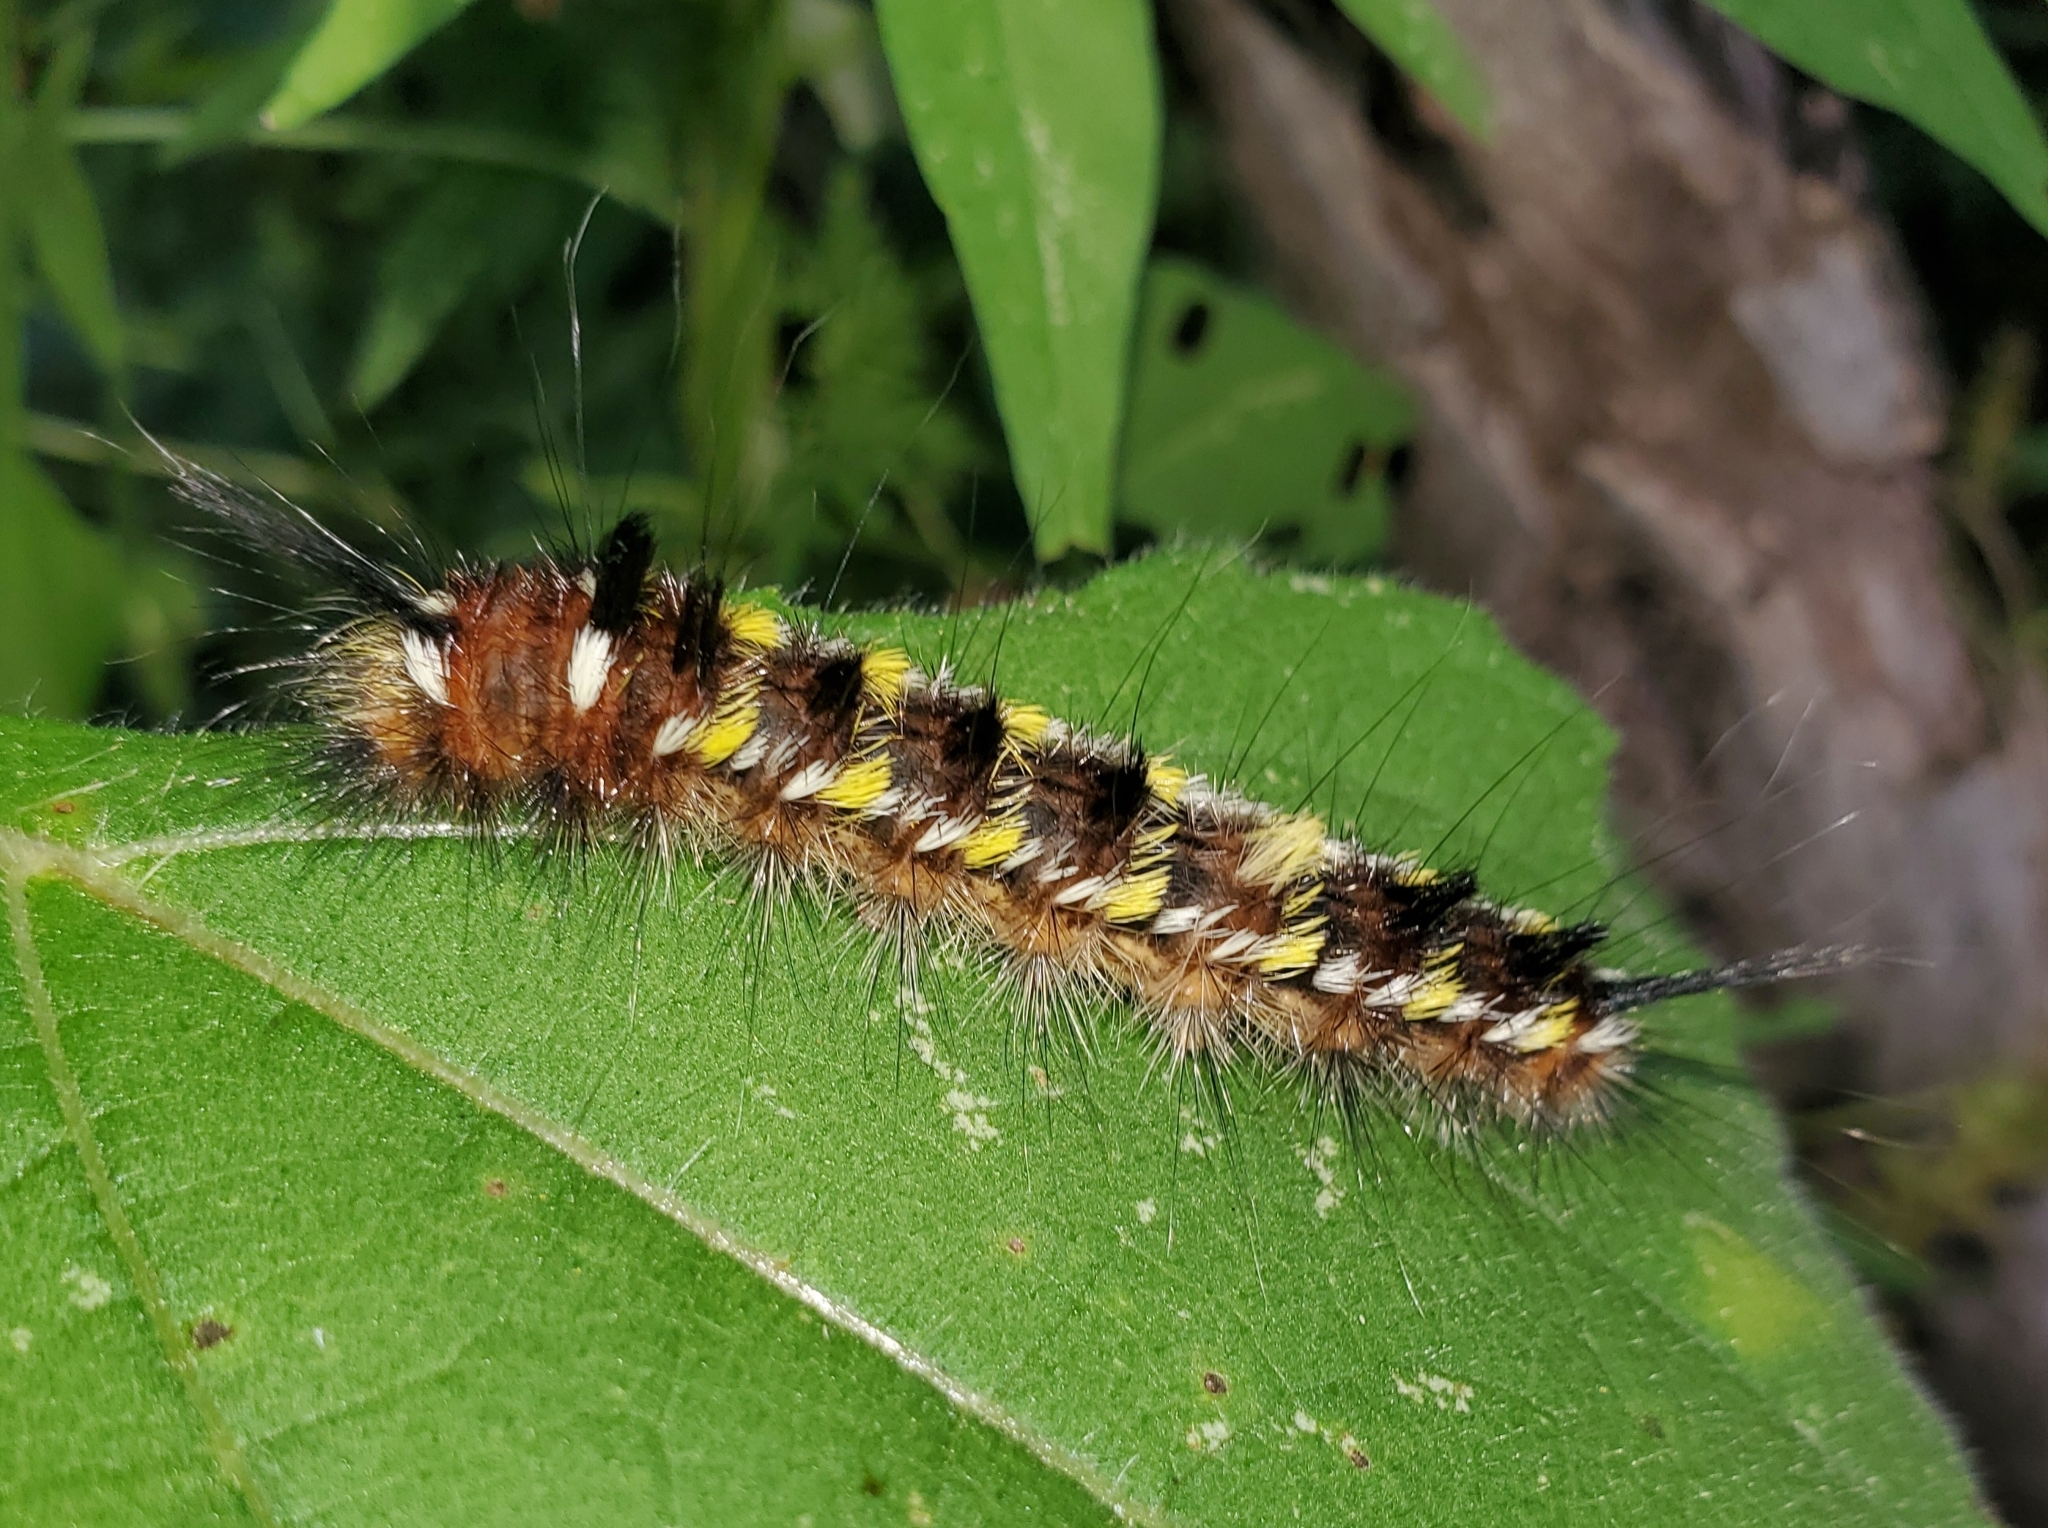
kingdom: Animalia
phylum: Arthropoda
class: Insecta
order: Lepidoptera
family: Apatelodidae
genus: Hygrochroa
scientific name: Hygrochroa Apatelodes pudefacta
